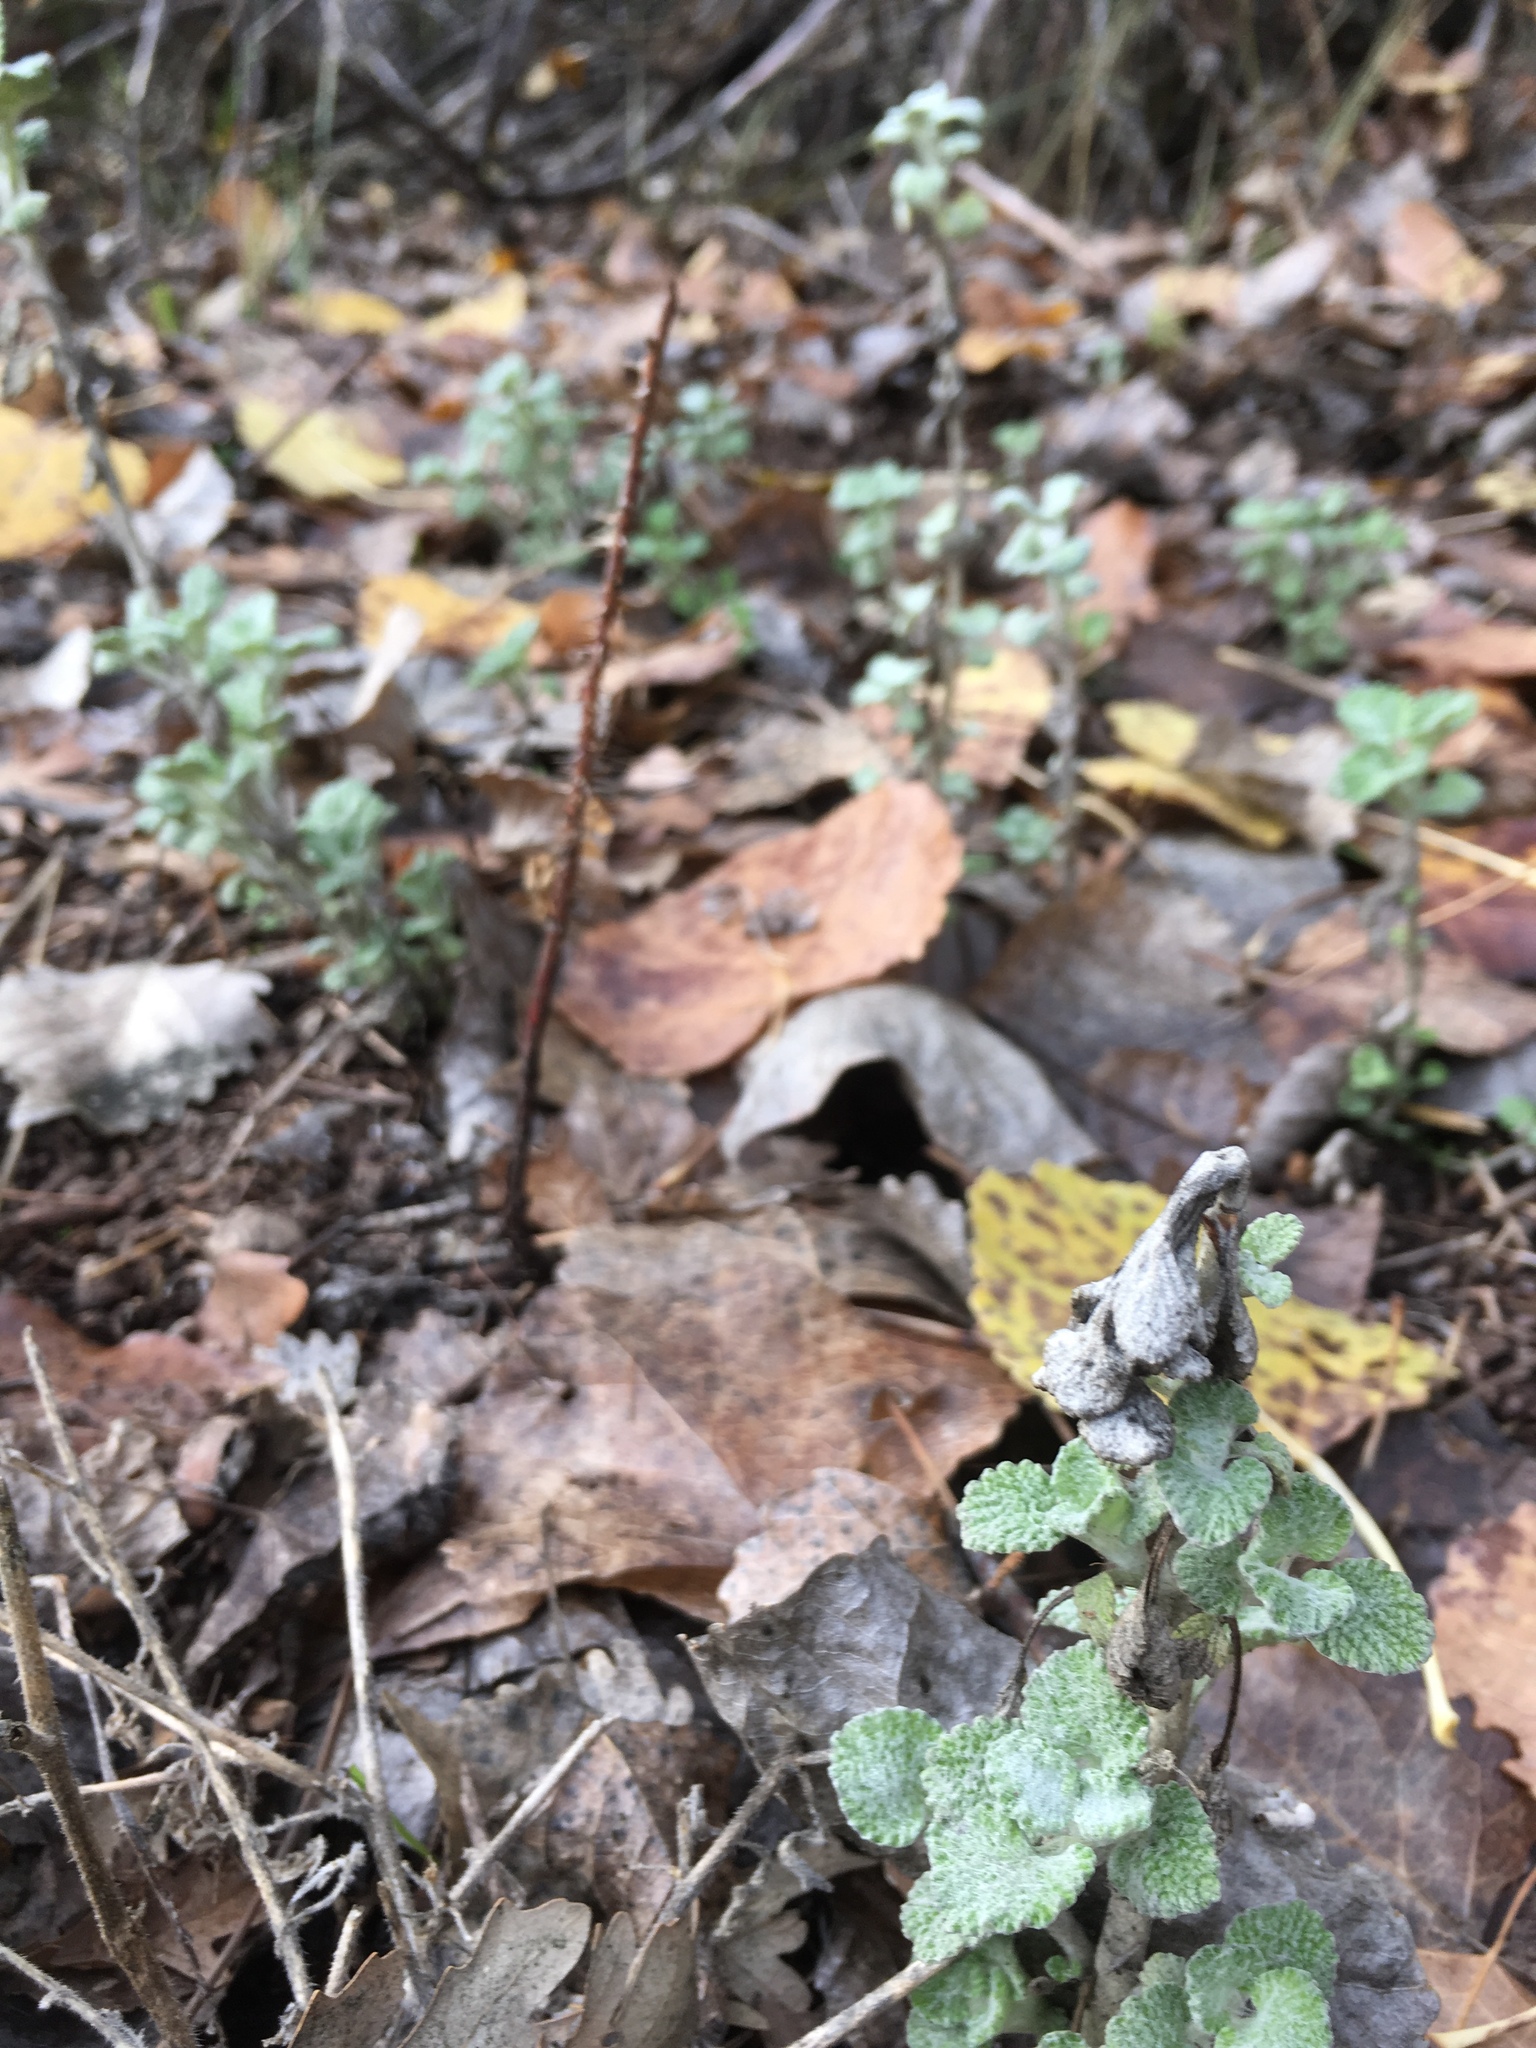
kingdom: Plantae
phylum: Tracheophyta
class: Magnoliopsida
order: Lamiales
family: Lamiaceae
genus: Marrubium
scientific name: Marrubium vulgare
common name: Horehound
